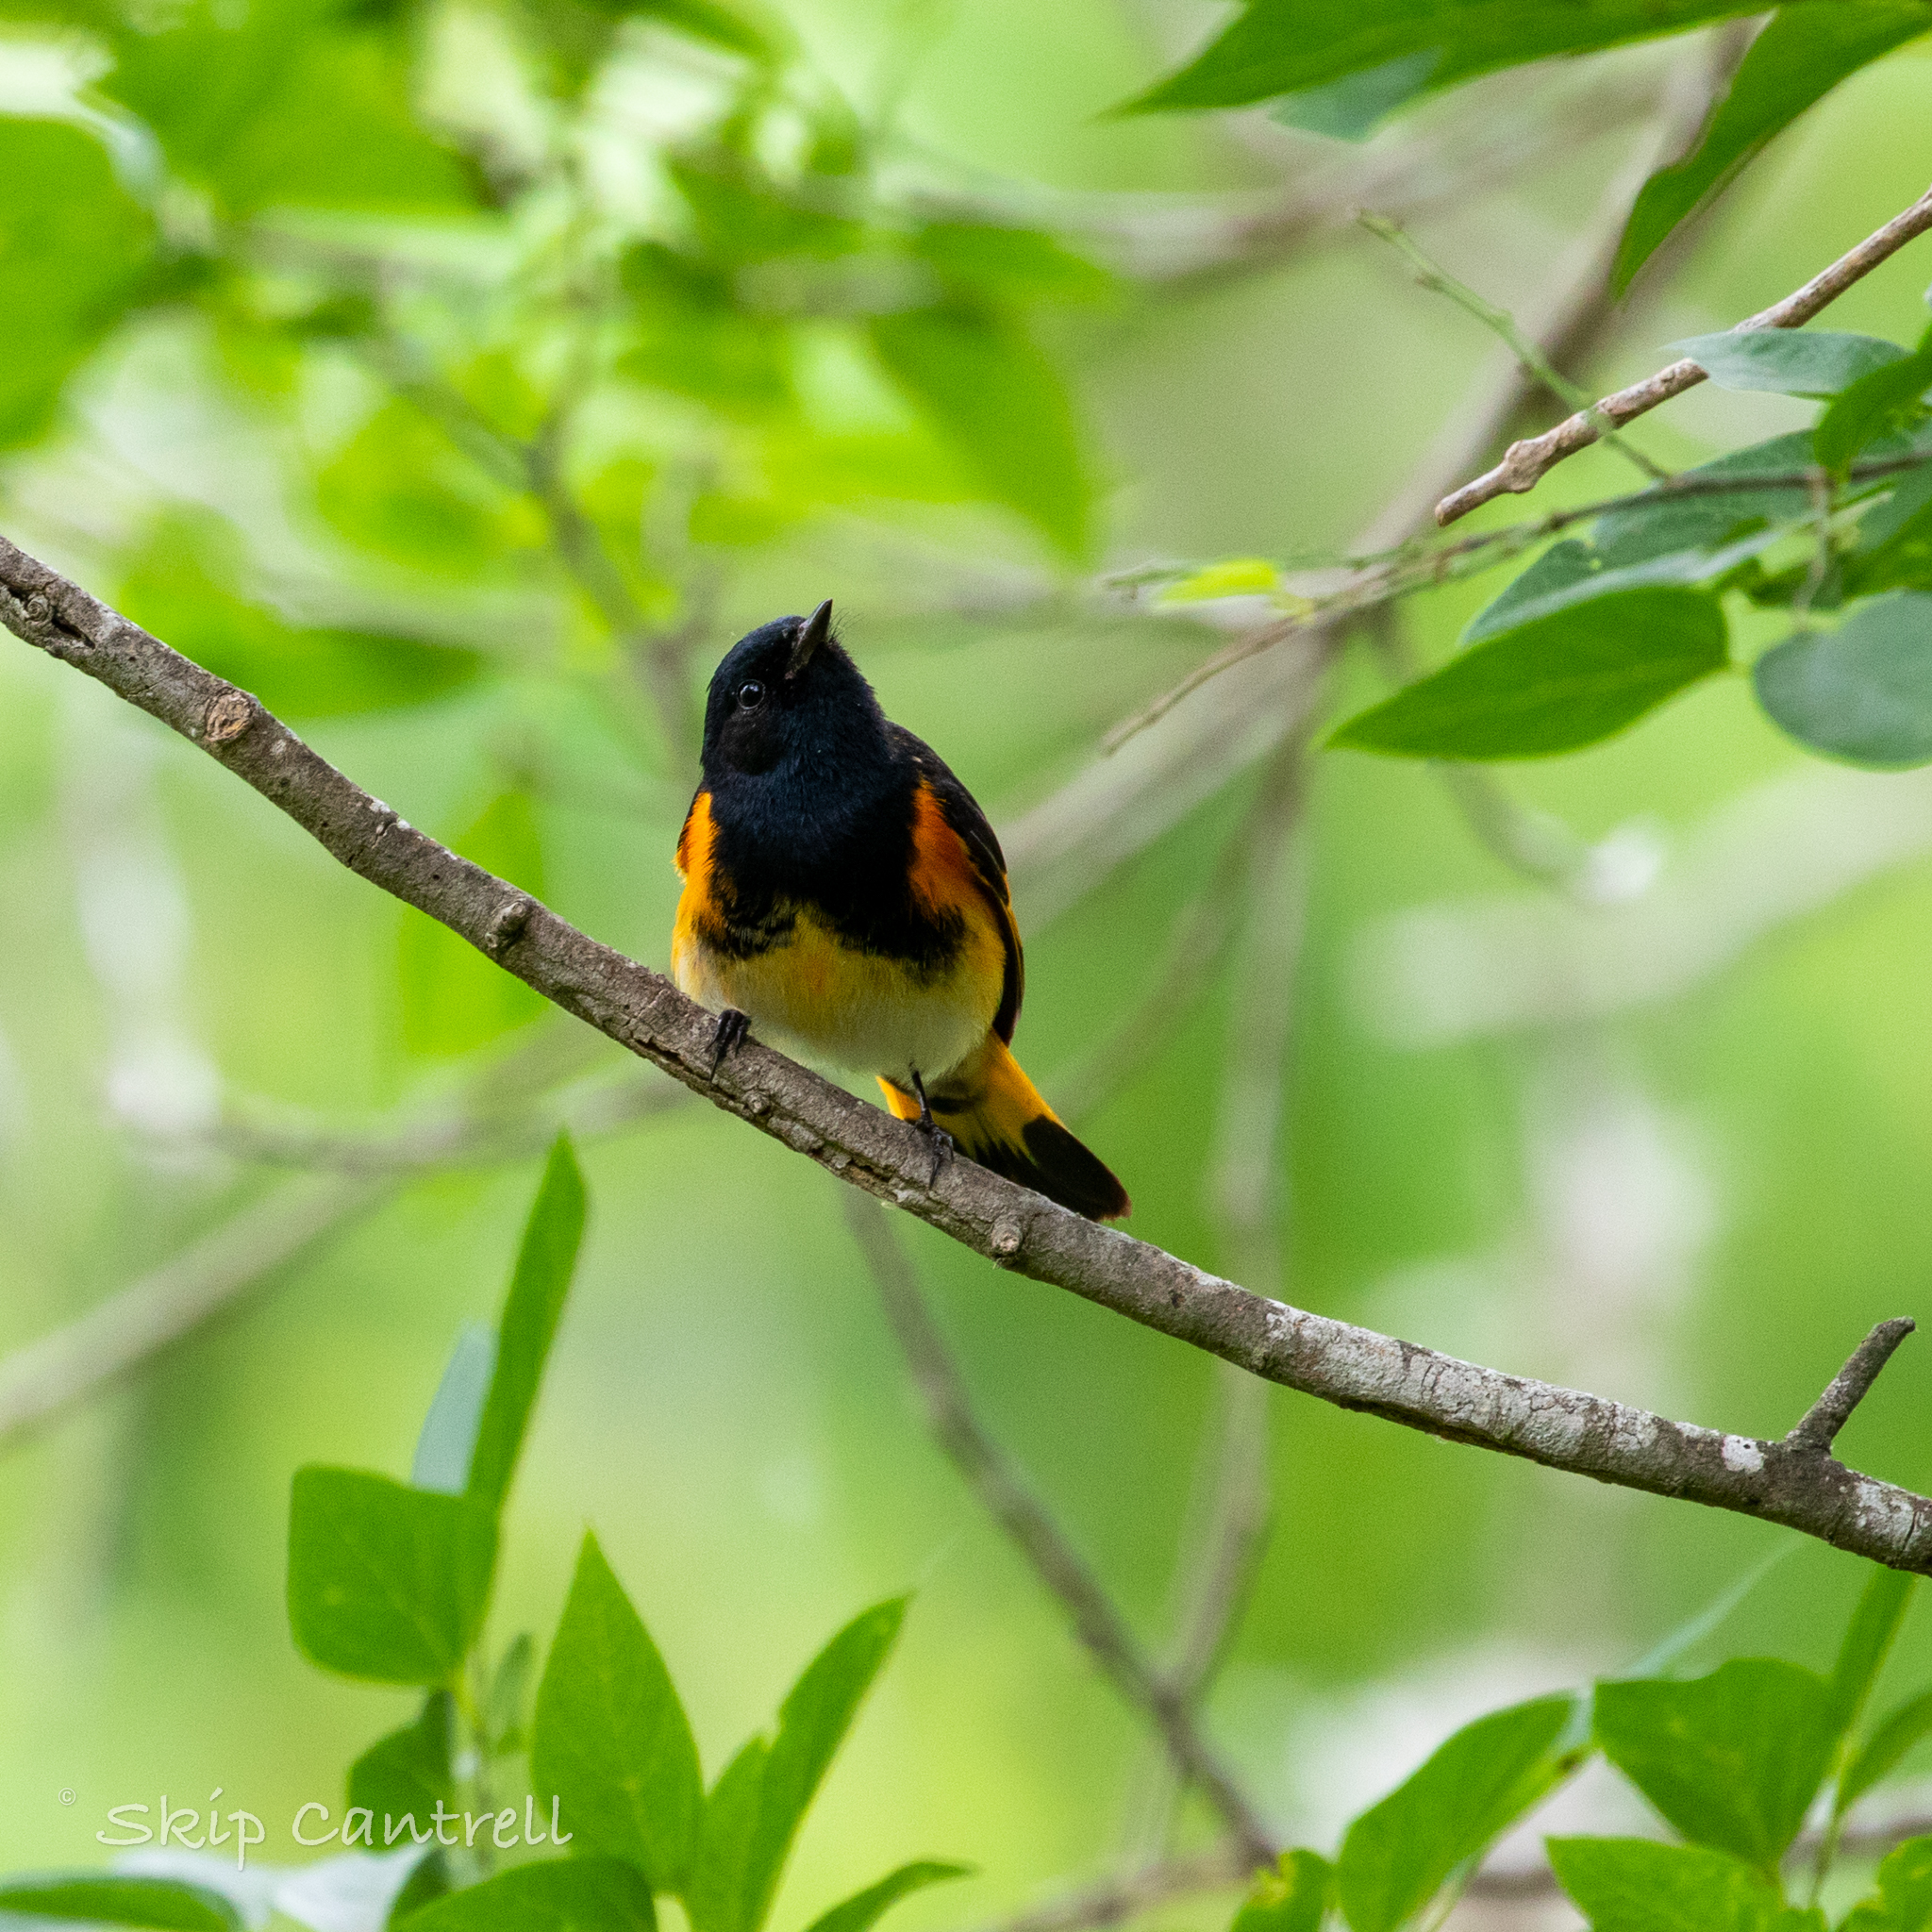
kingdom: Animalia
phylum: Chordata
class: Aves
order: Passeriformes
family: Parulidae
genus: Setophaga
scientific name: Setophaga ruticilla
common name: American redstart
